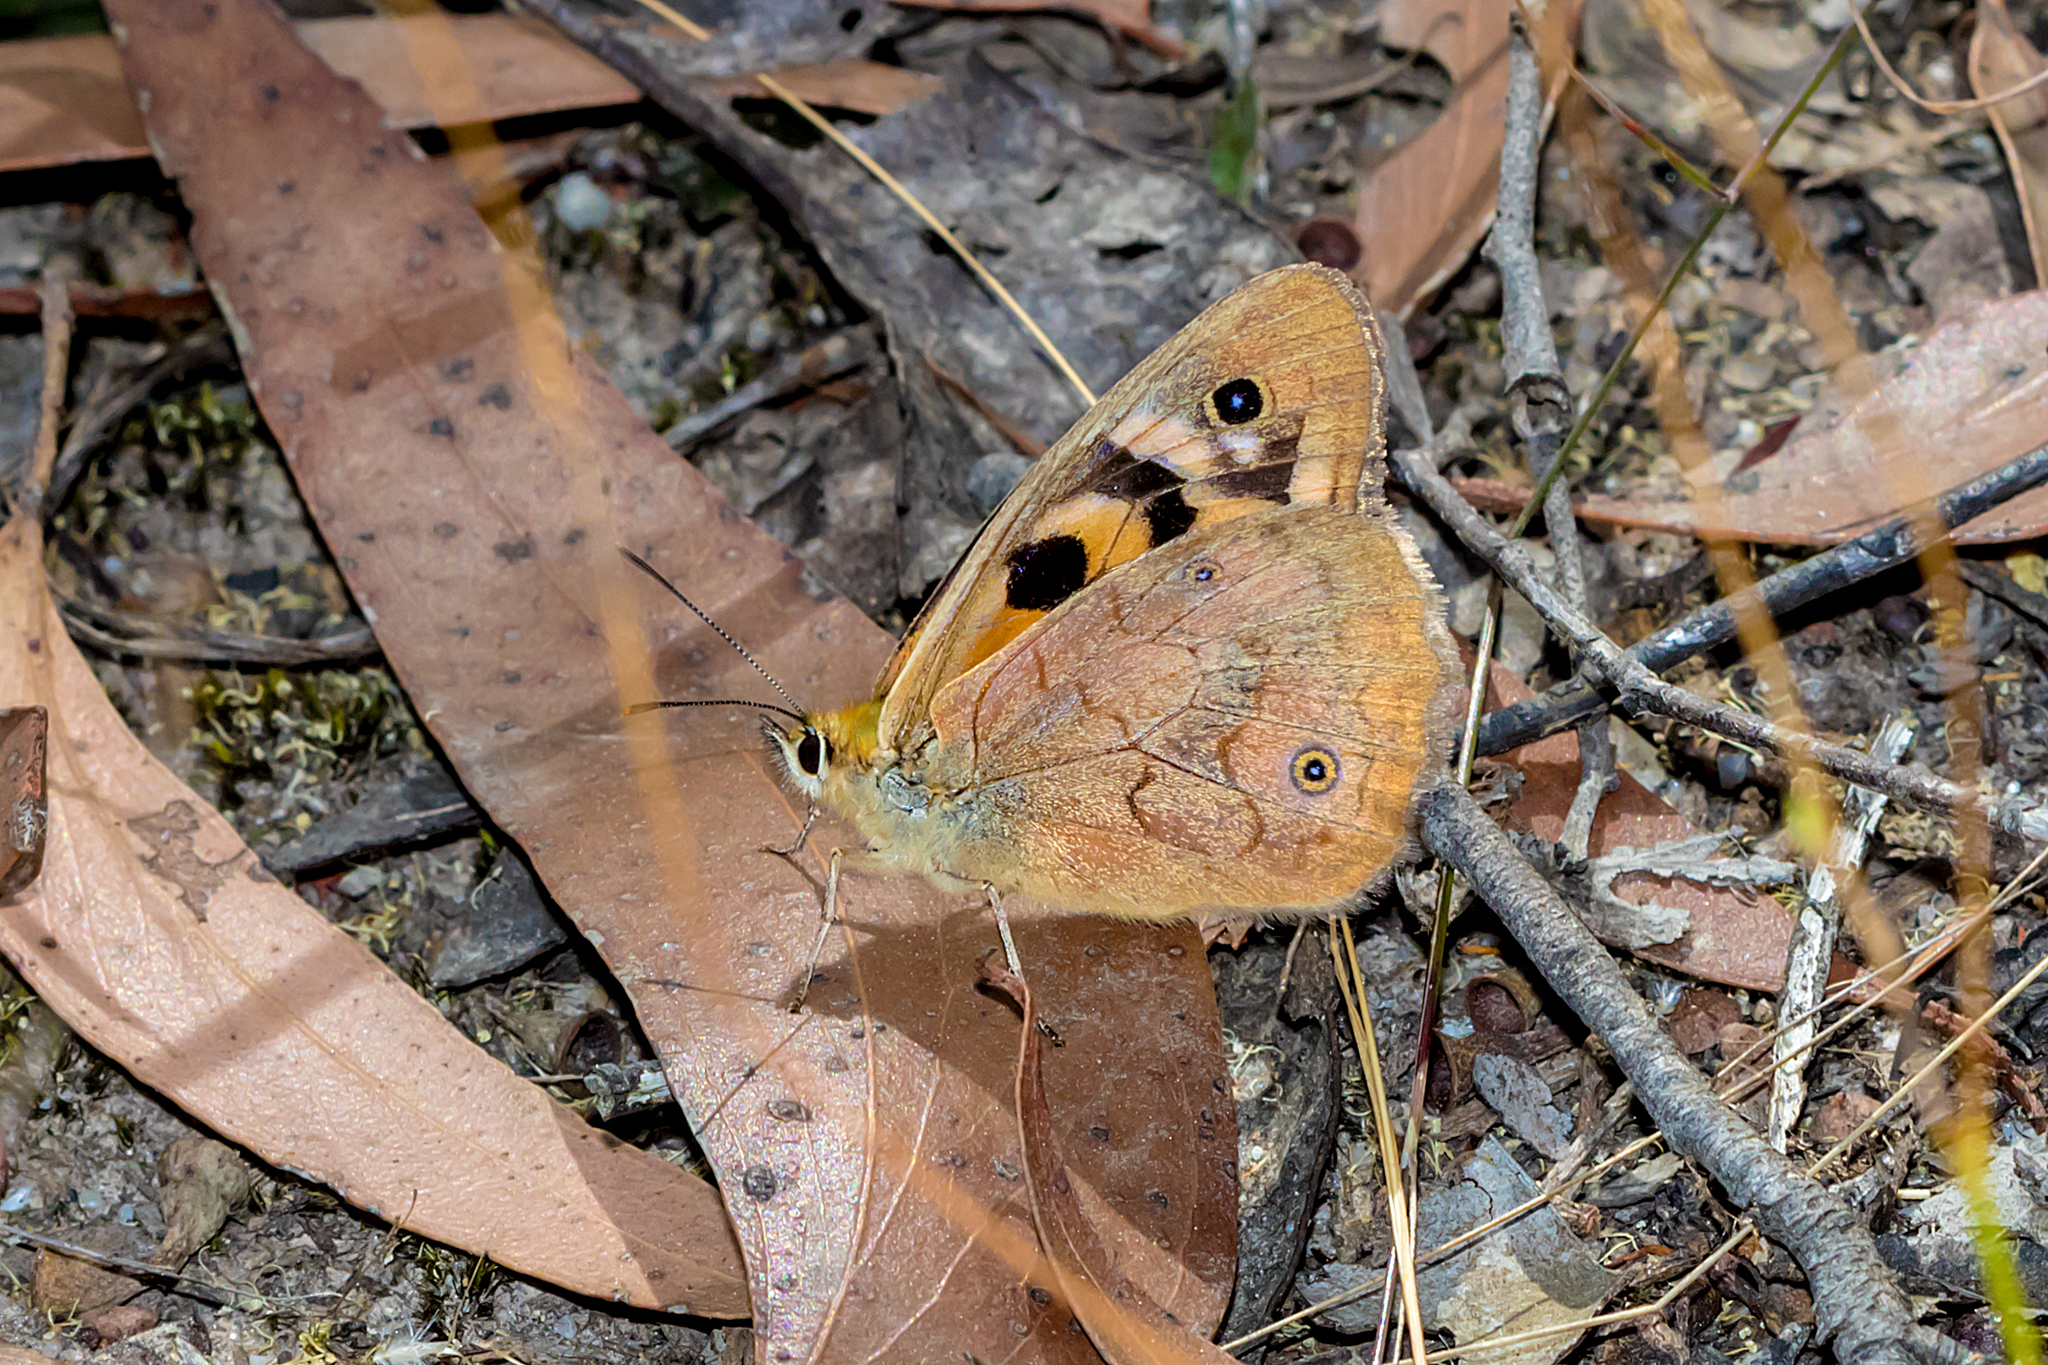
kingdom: Animalia
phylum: Arthropoda
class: Insecta
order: Lepidoptera
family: Nymphalidae
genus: Heteronympha
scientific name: Heteronympha penelope
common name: Shouldered brown
